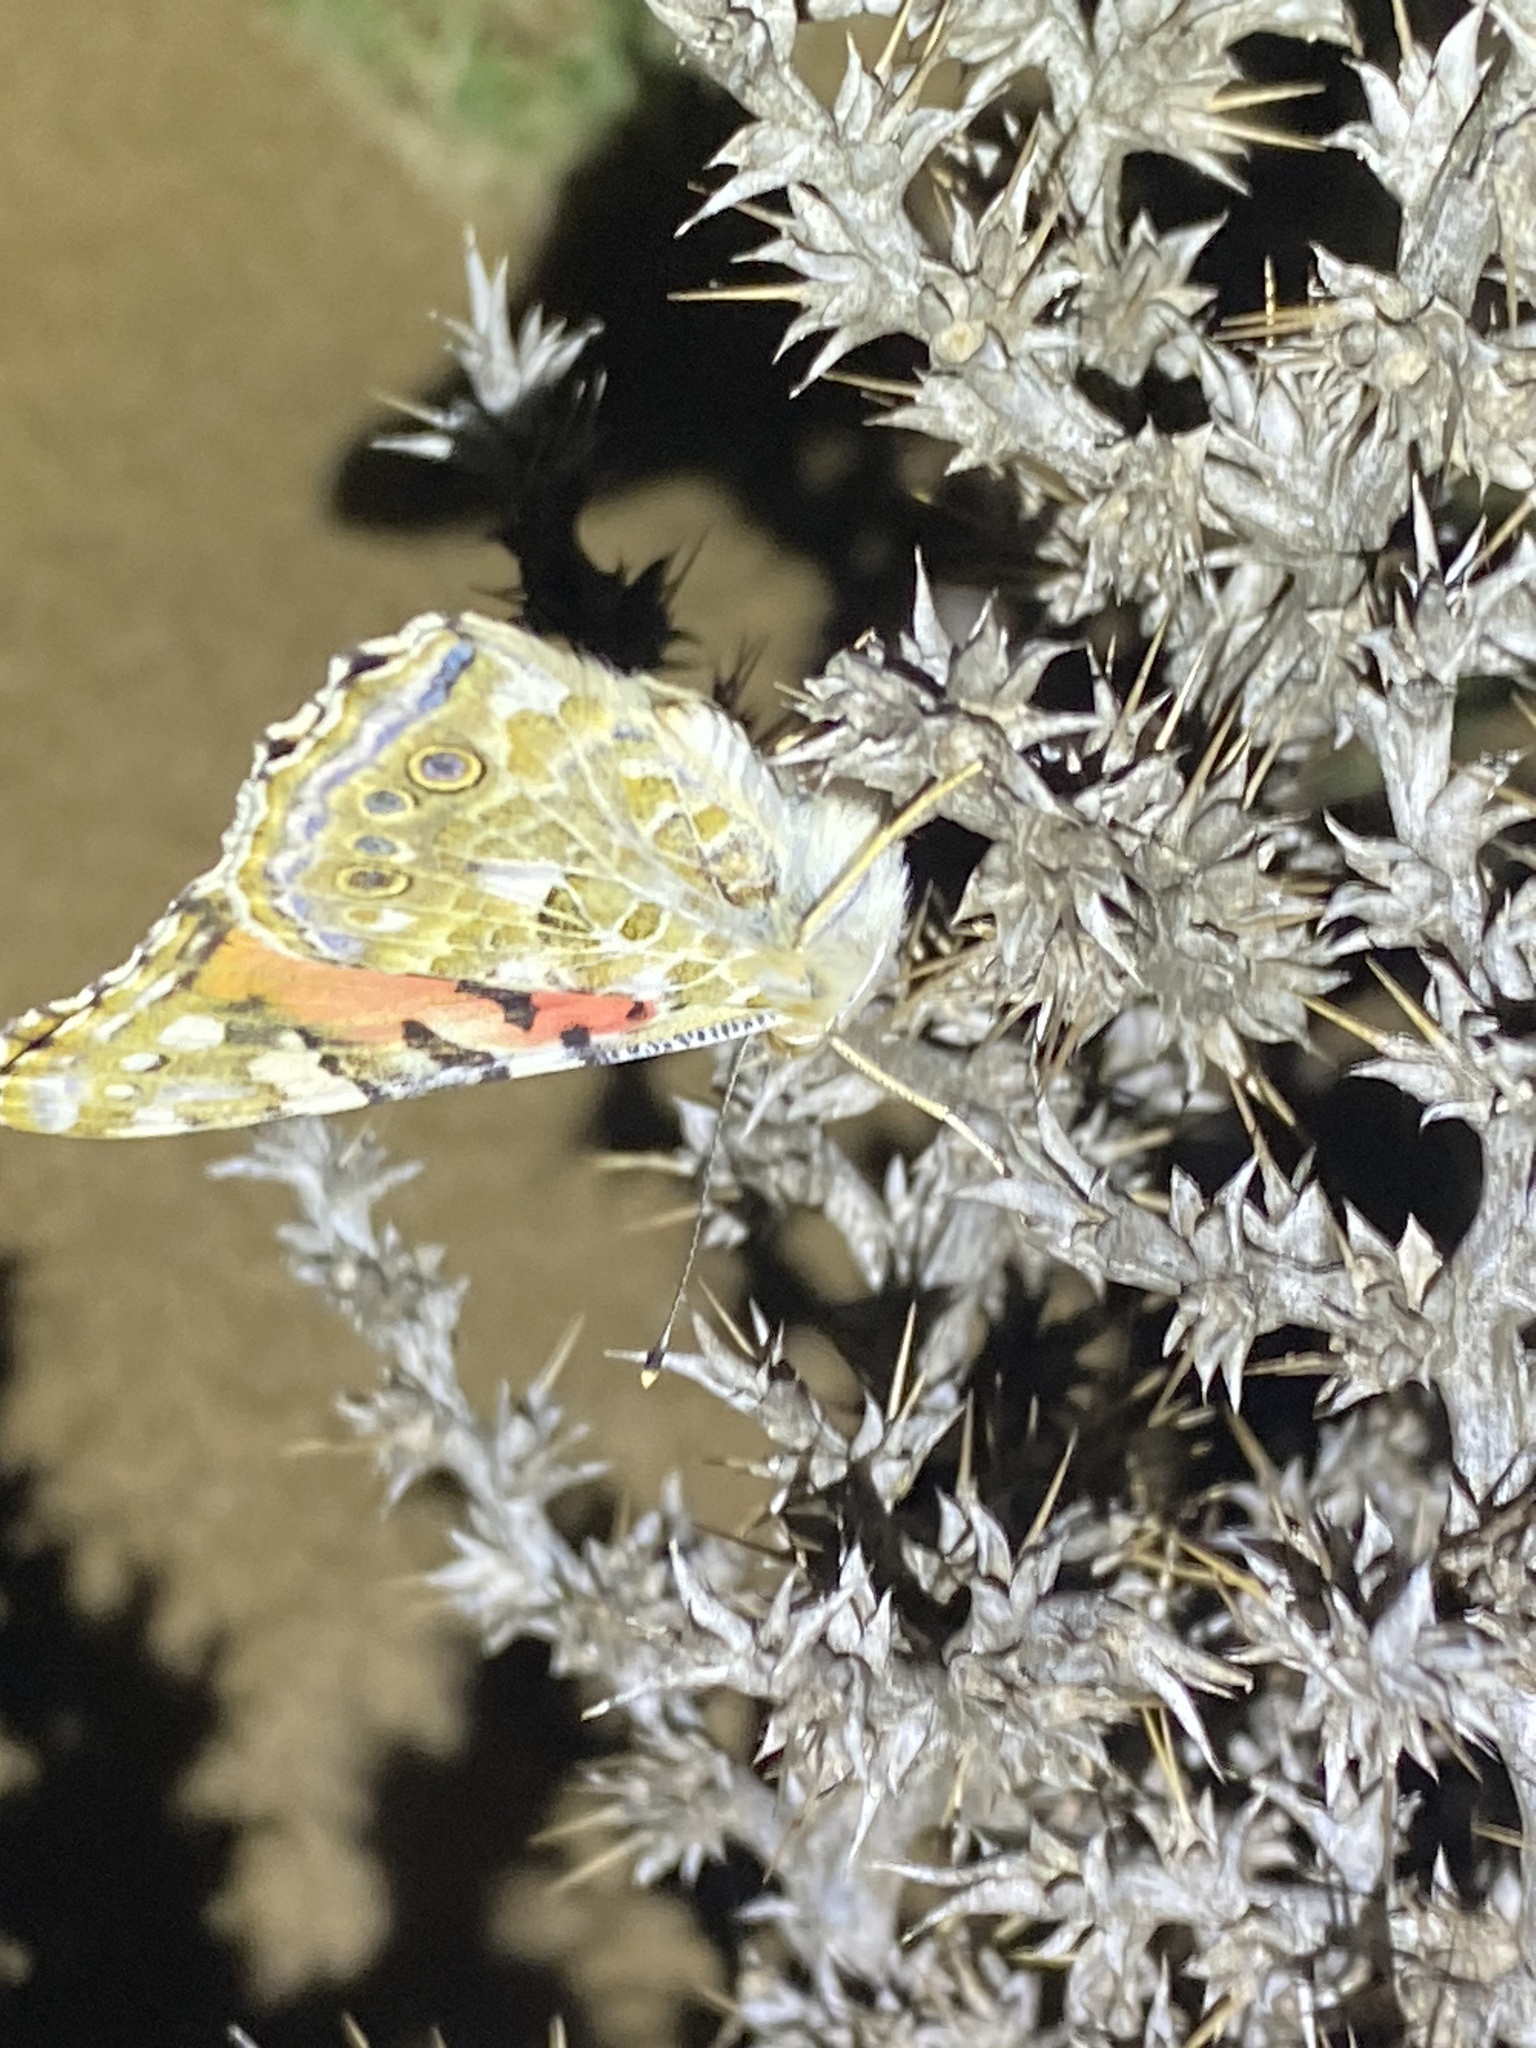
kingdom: Animalia
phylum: Arthropoda
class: Insecta
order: Lepidoptera
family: Nymphalidae
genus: Vanessa
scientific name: Vanessa cardui
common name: Painted lady
